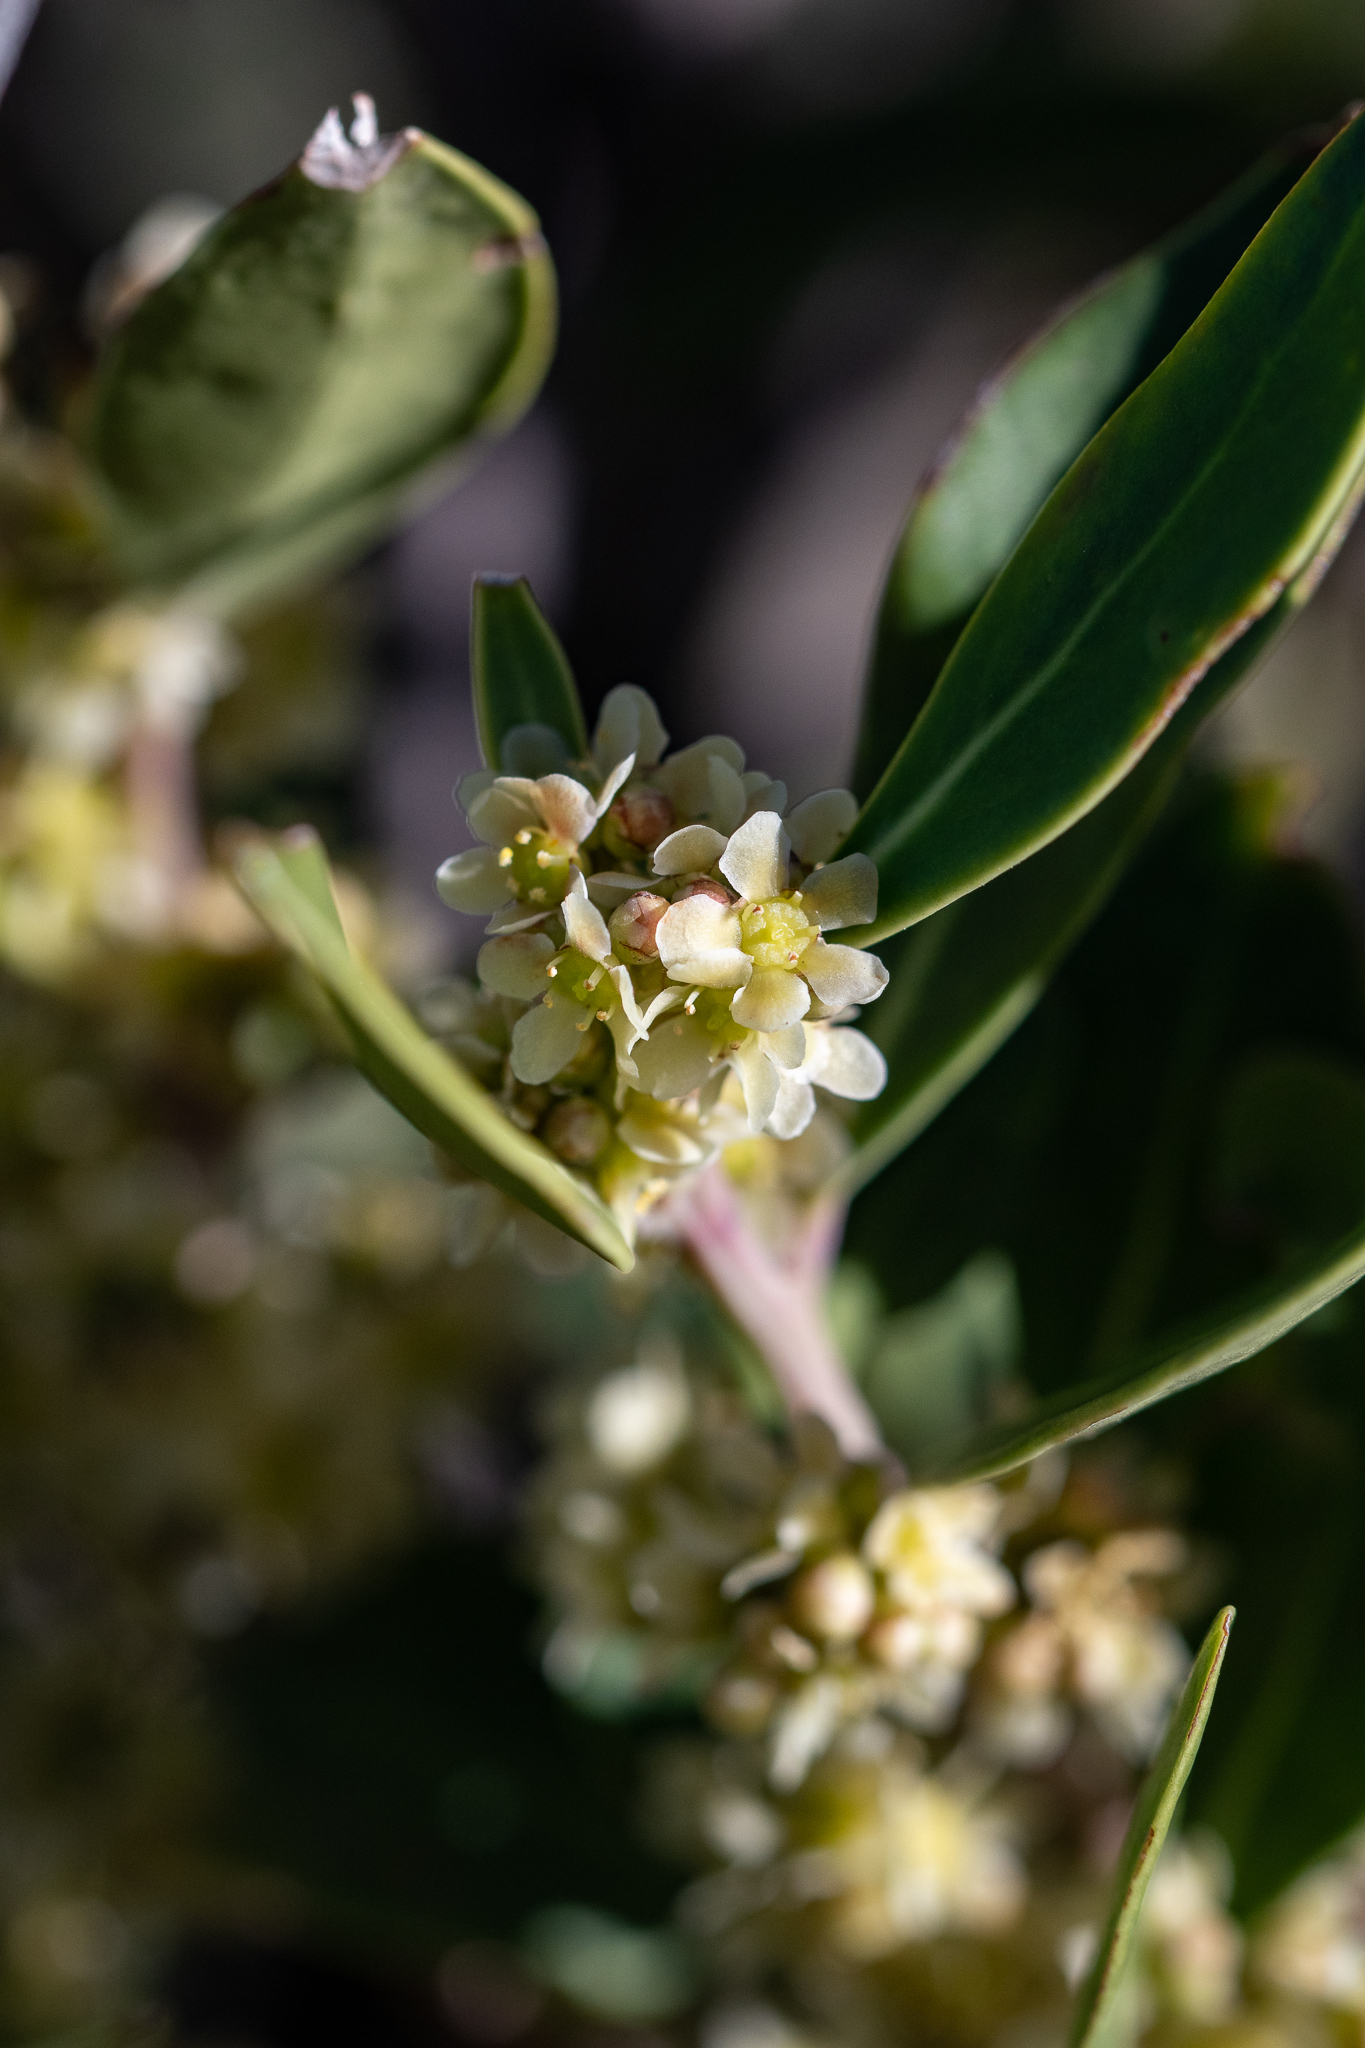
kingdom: Plantae
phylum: Tracheophyta
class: Magnoliopsida
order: Celastrales
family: Celastraceae
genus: Gymnosporia
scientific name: Gymnosporia laurina
